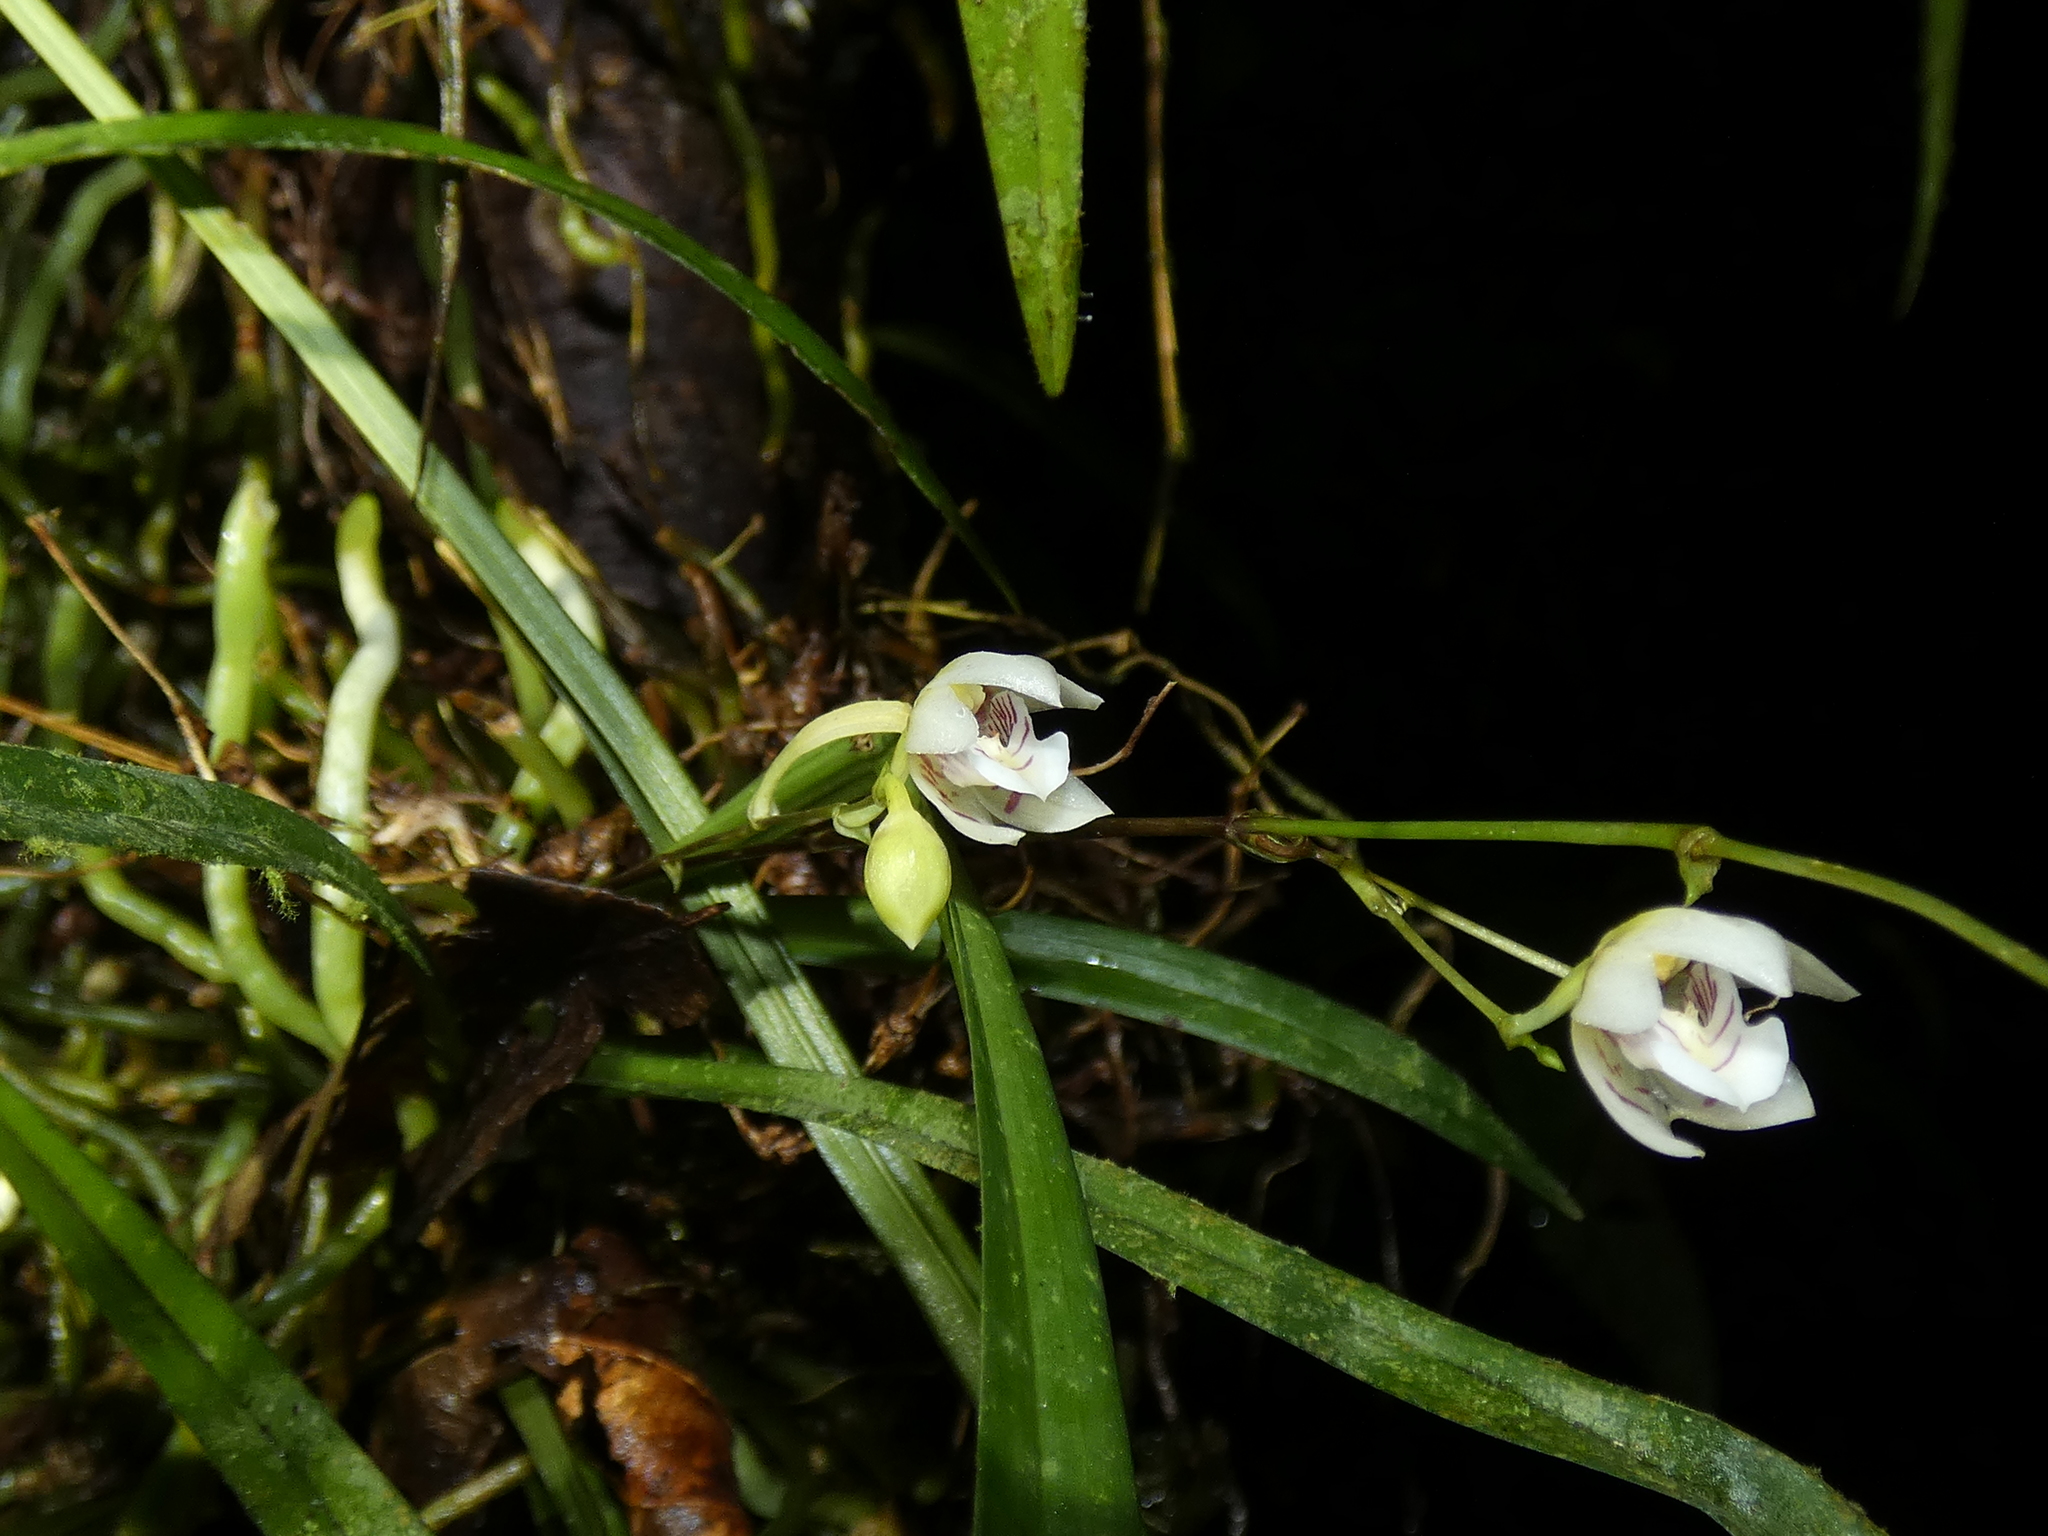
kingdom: Plantae
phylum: Tracheophyta
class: Liliopsida
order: Asparagales
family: Orchidaceae
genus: Koellensteinia
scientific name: Koellensteinia graminea
